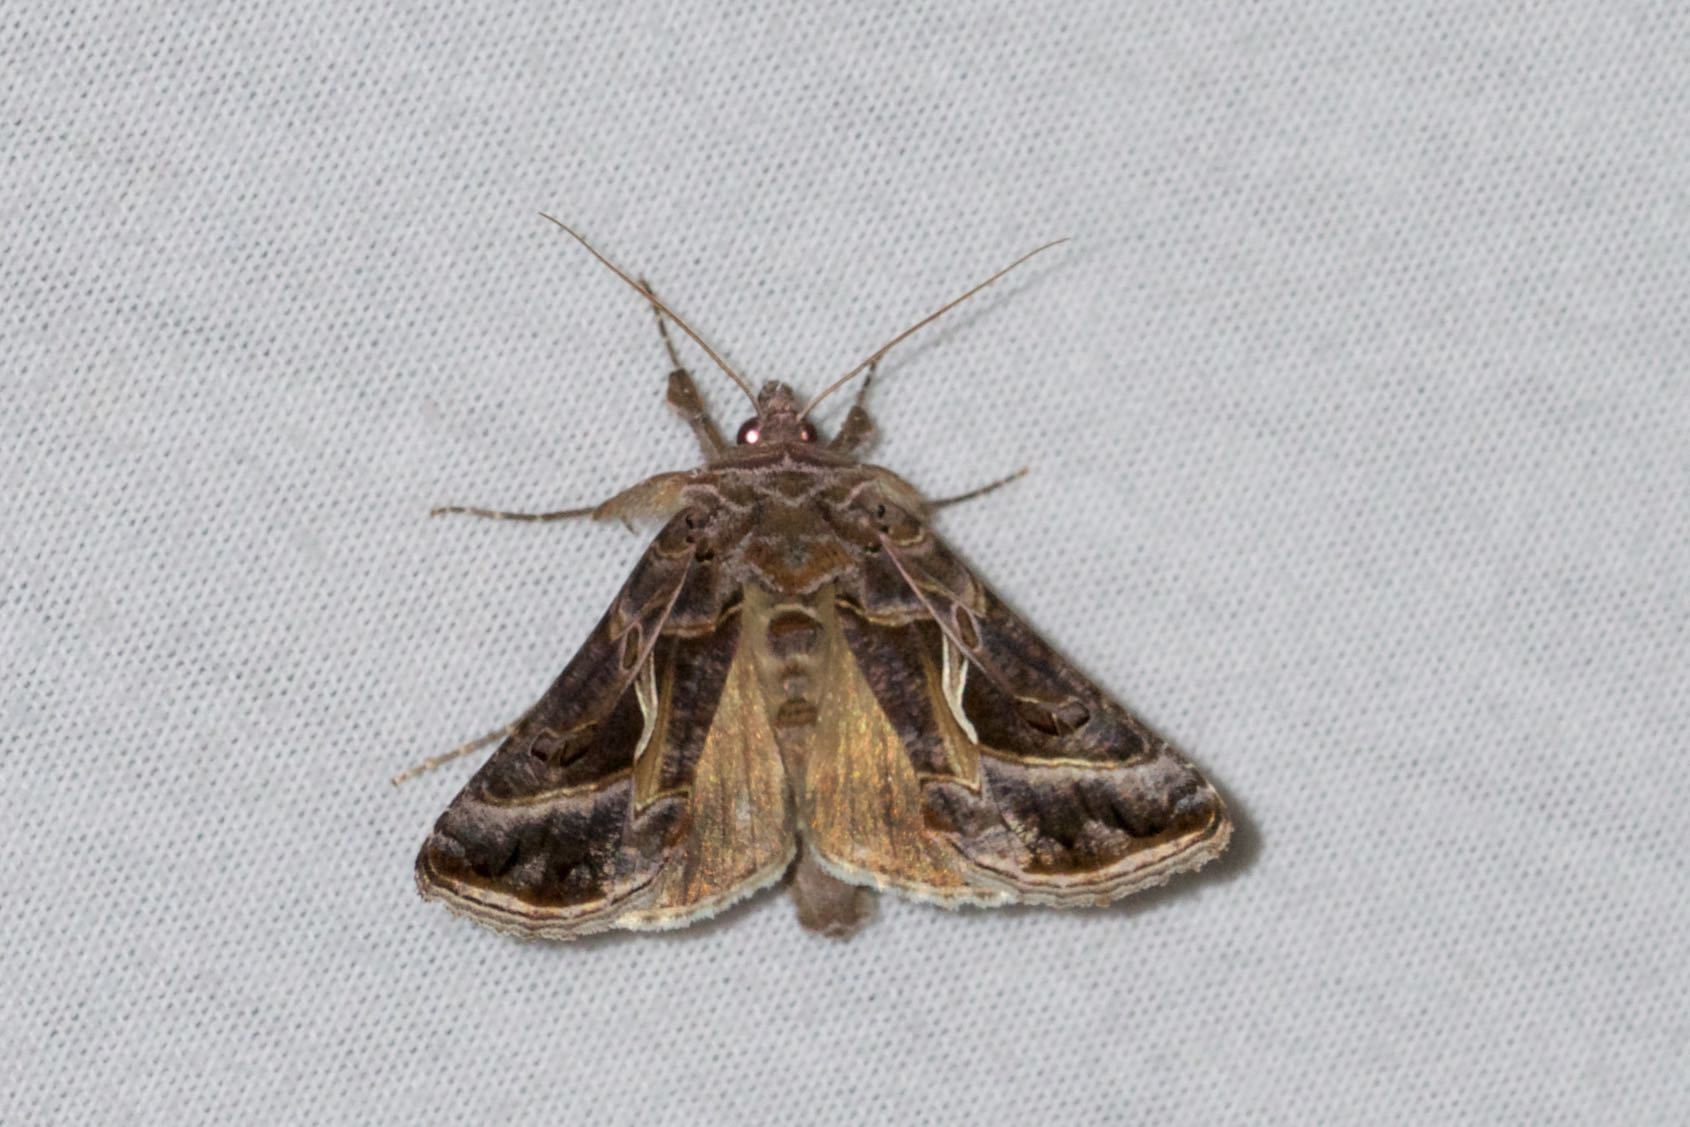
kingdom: Animalia
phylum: Arthropoda
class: Insecta
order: Lepidoptera
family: Noctuidae
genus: Autographa
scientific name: Autographa flagellum
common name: Silver whip moth
